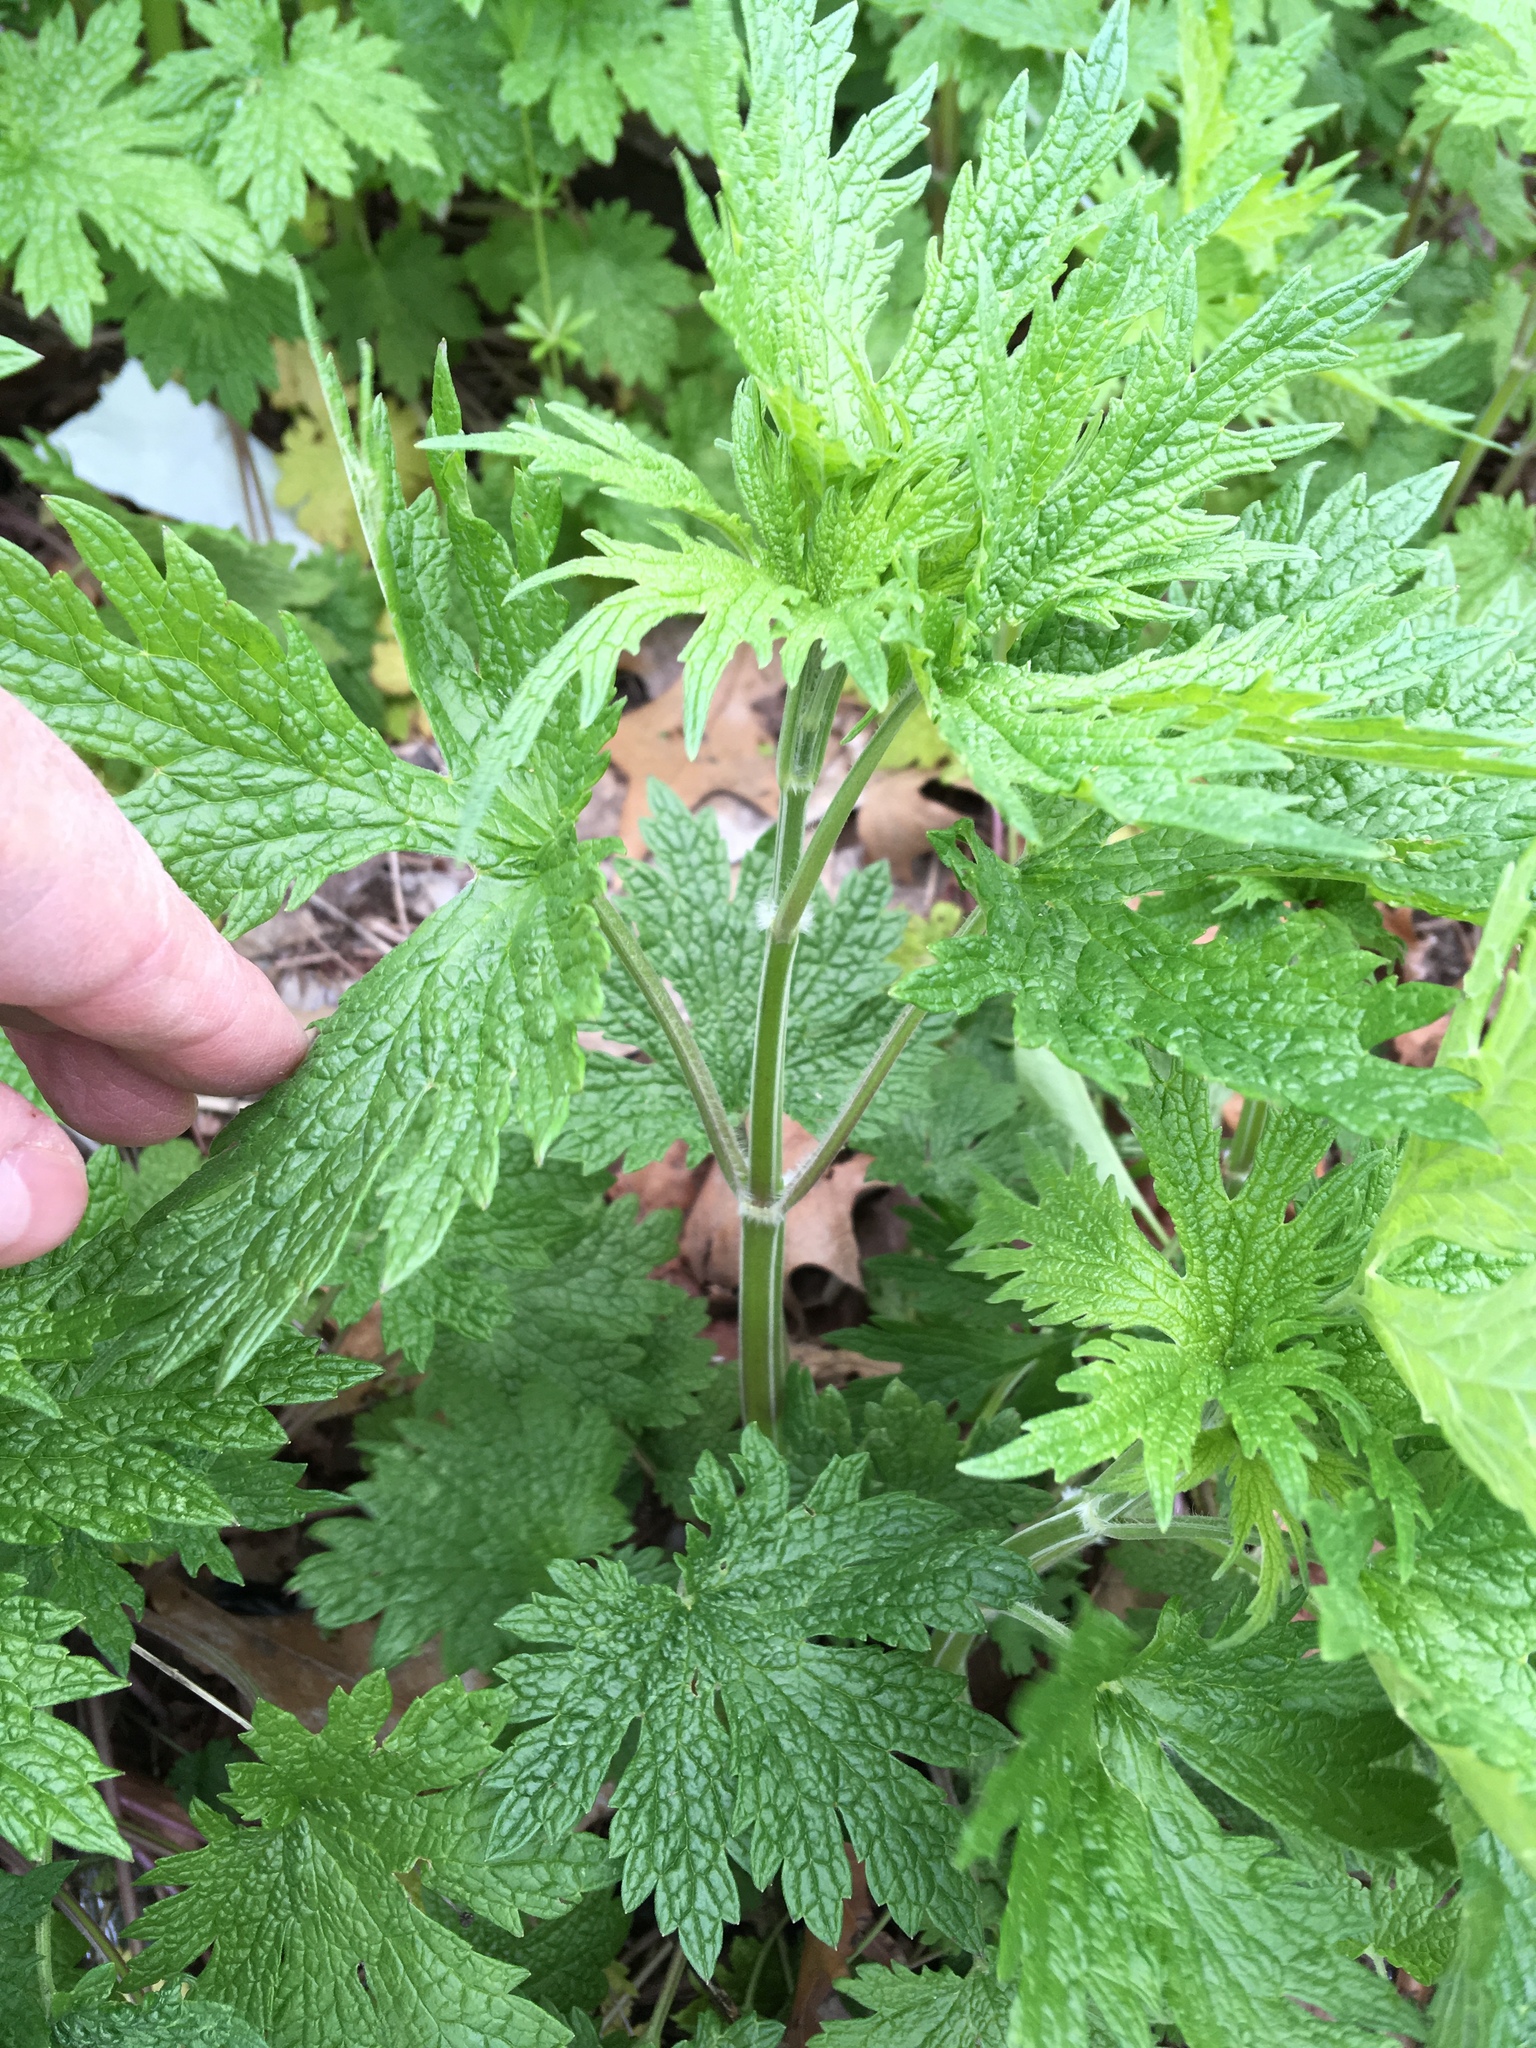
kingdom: Plantae
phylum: Tracheophyta
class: Magnoliopsida
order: Lamiales
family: Lamiaceae
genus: Leonurus
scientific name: Leonurus cardiaca
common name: Motherwort
